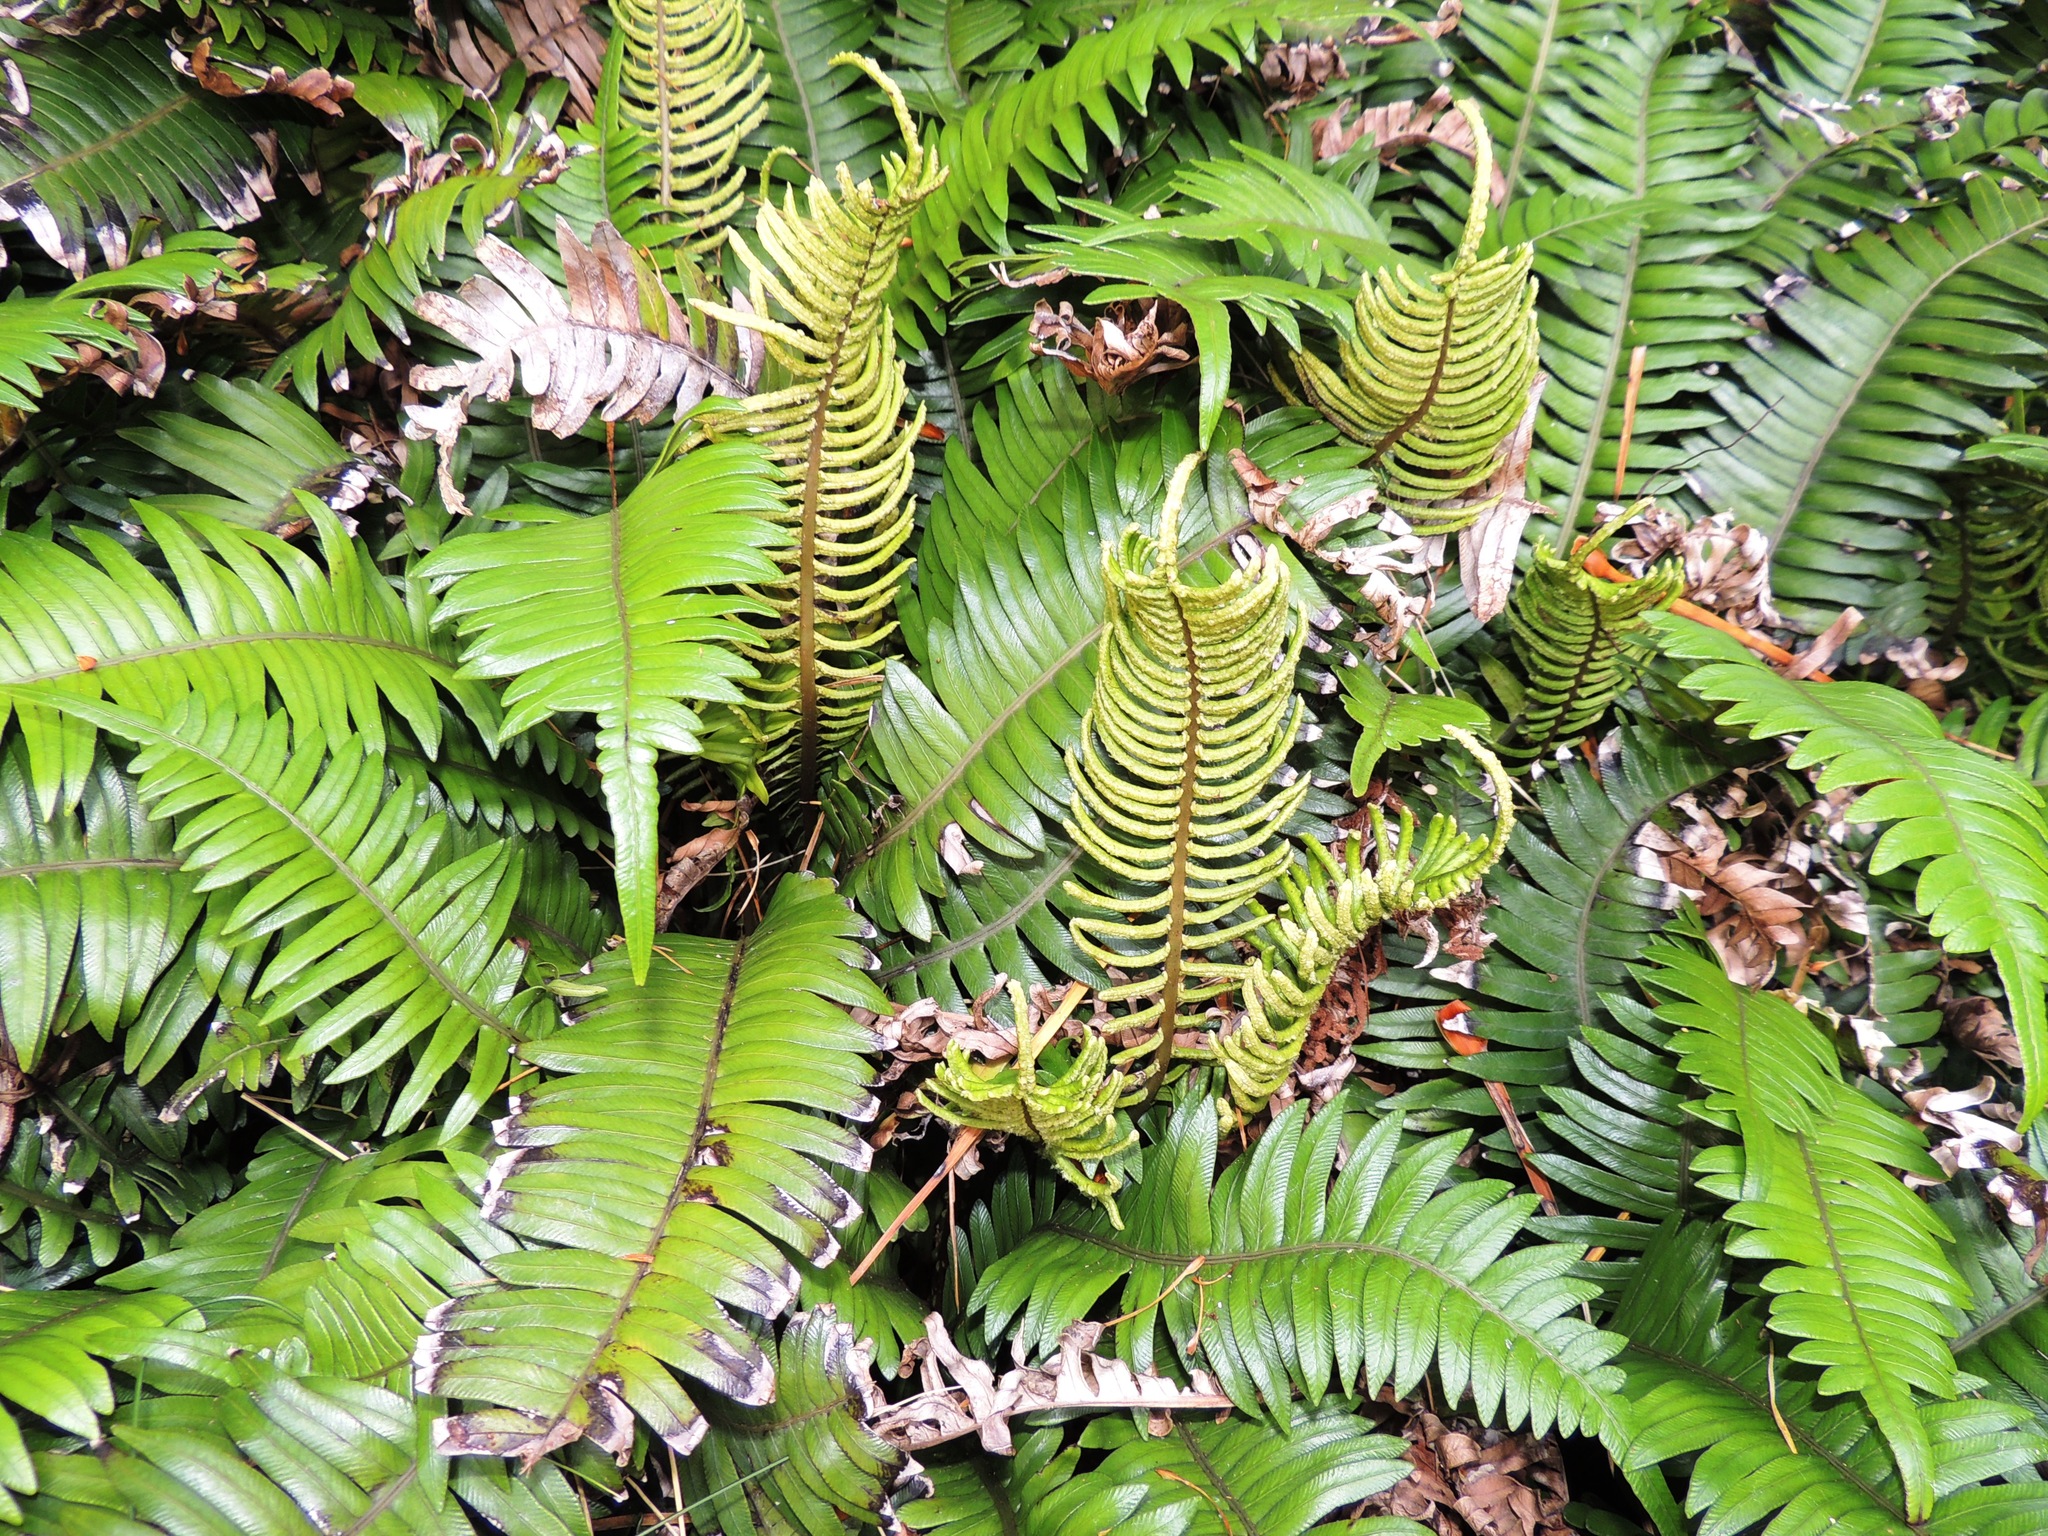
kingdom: Plantae
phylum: Tracheophyta
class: Polypodiopsida
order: Polypodiales
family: Blechnaceae
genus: Austroblechnum
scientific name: Austroblechnum durum
